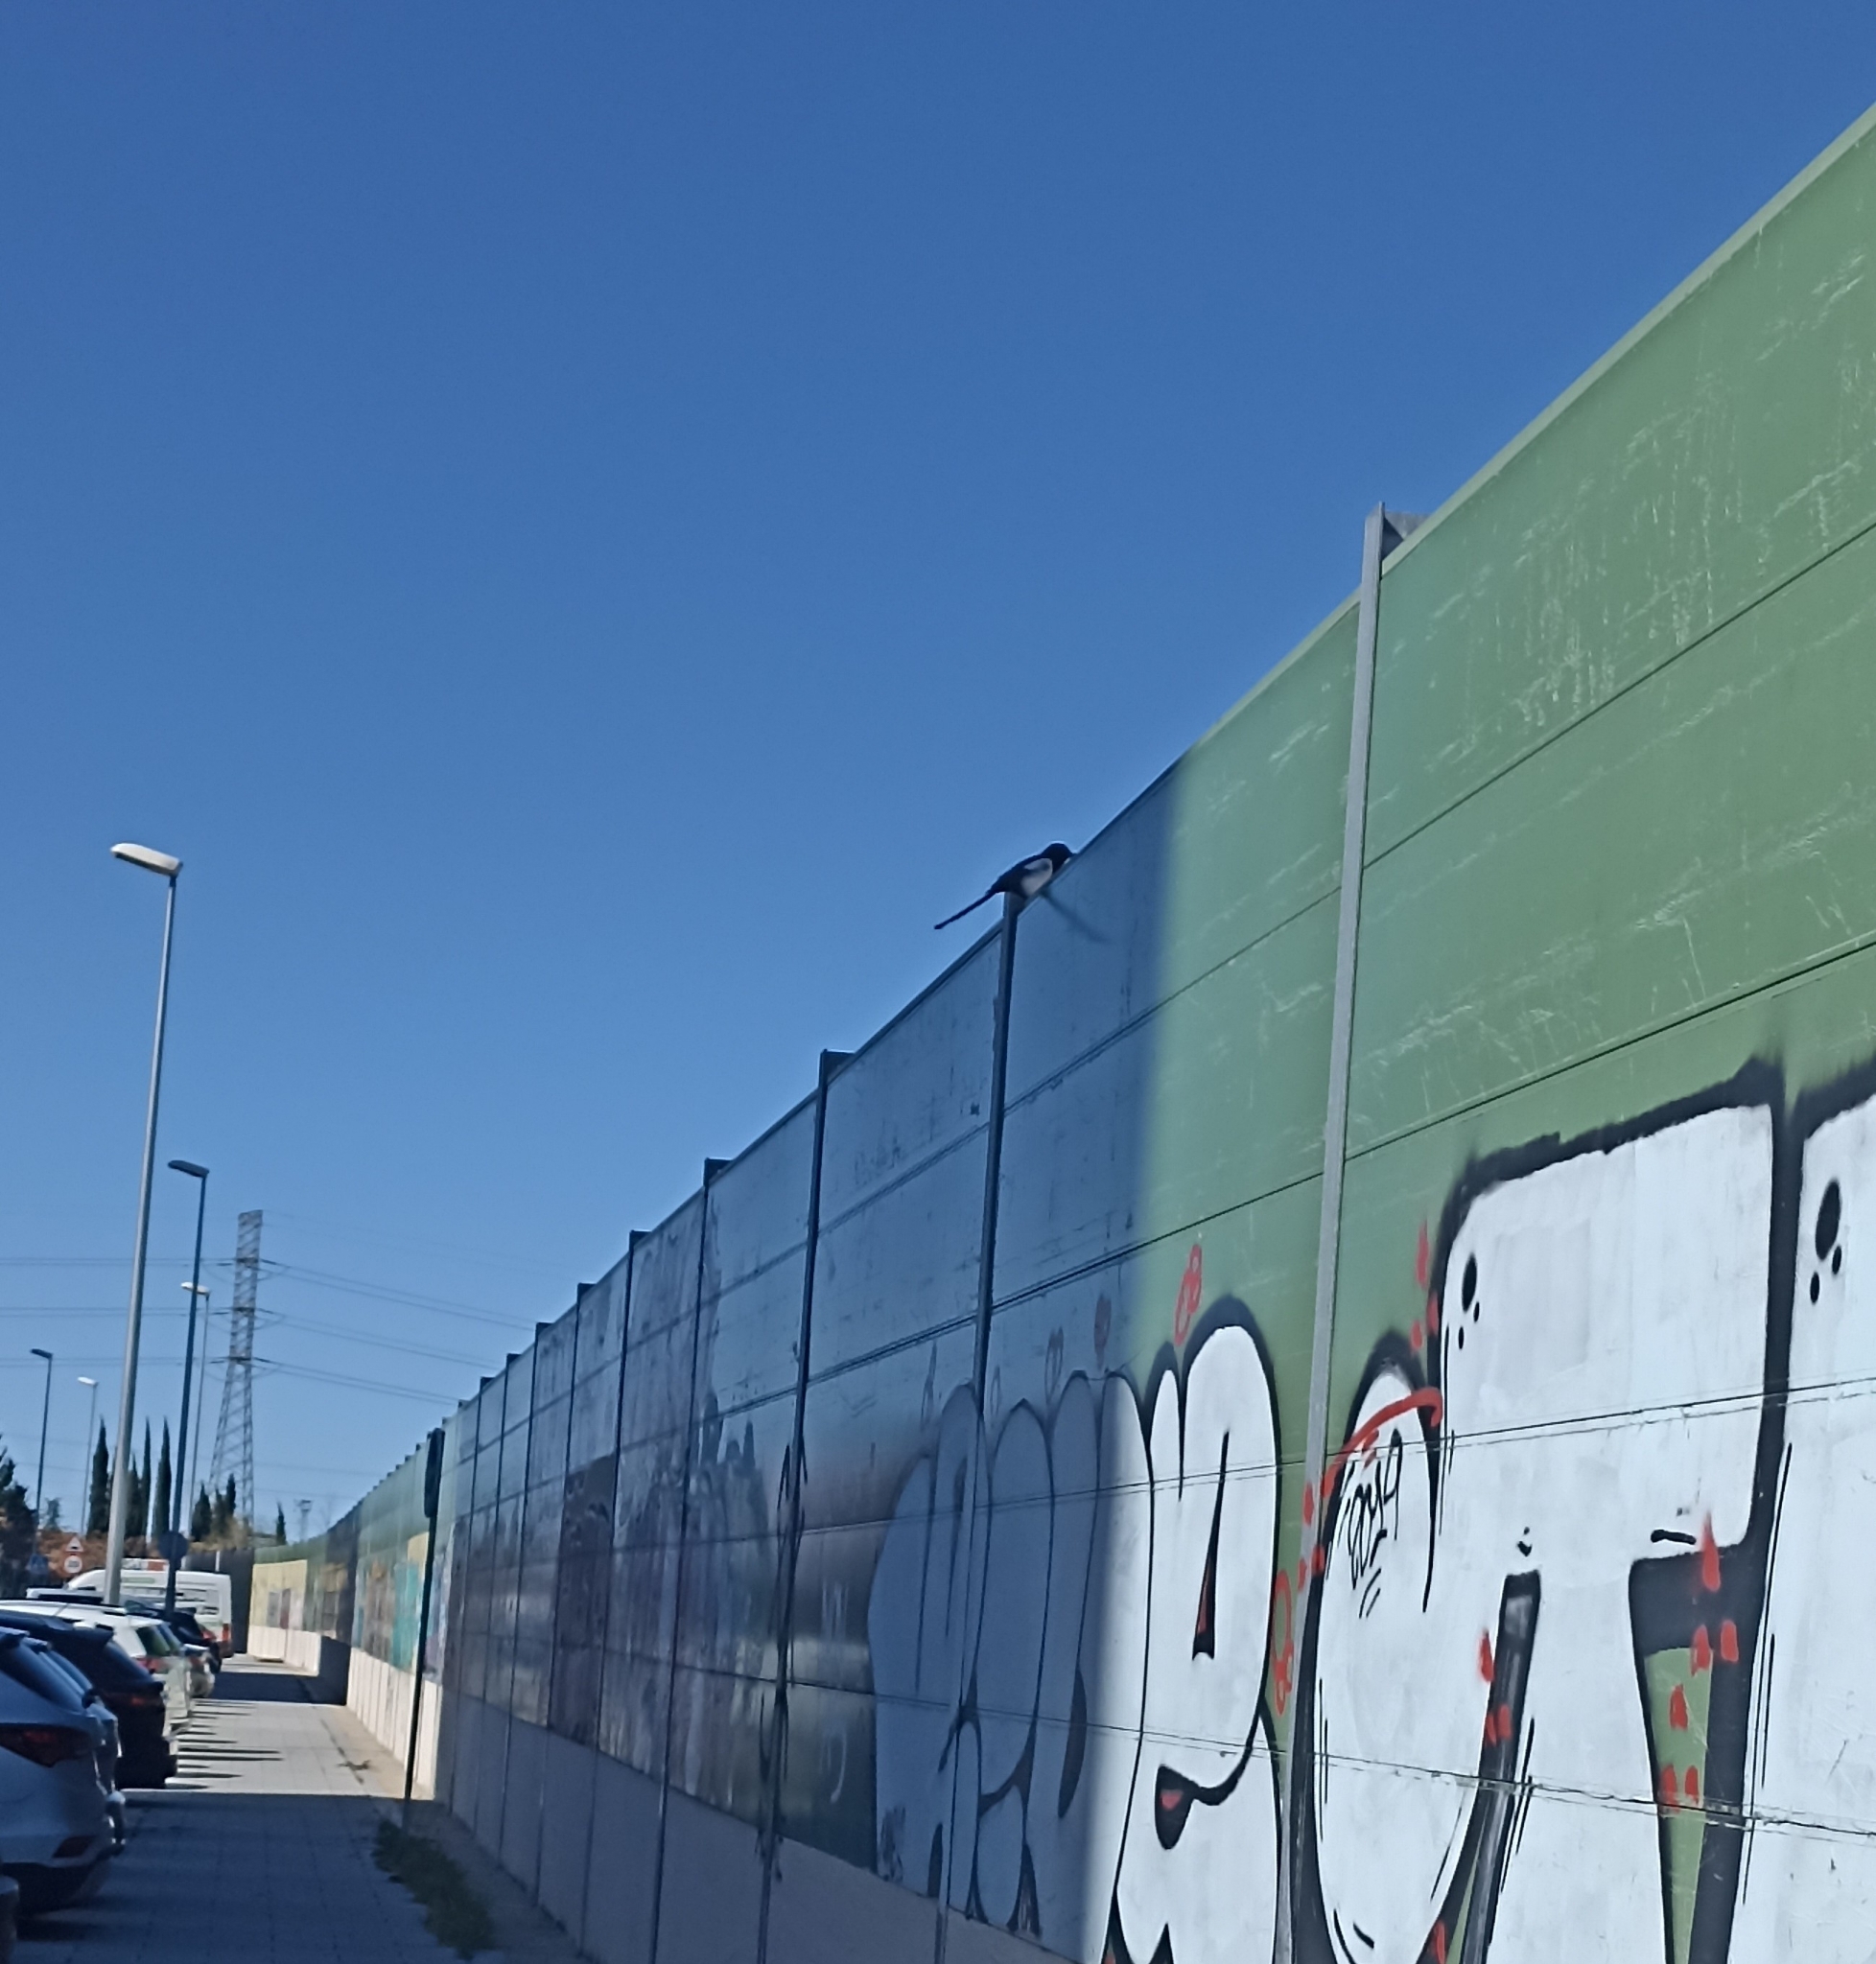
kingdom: Animalia
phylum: Chordata
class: Aves
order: Passeriformes
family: Corvidae
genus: Pica
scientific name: Pica pica
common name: Eurasian magpie
